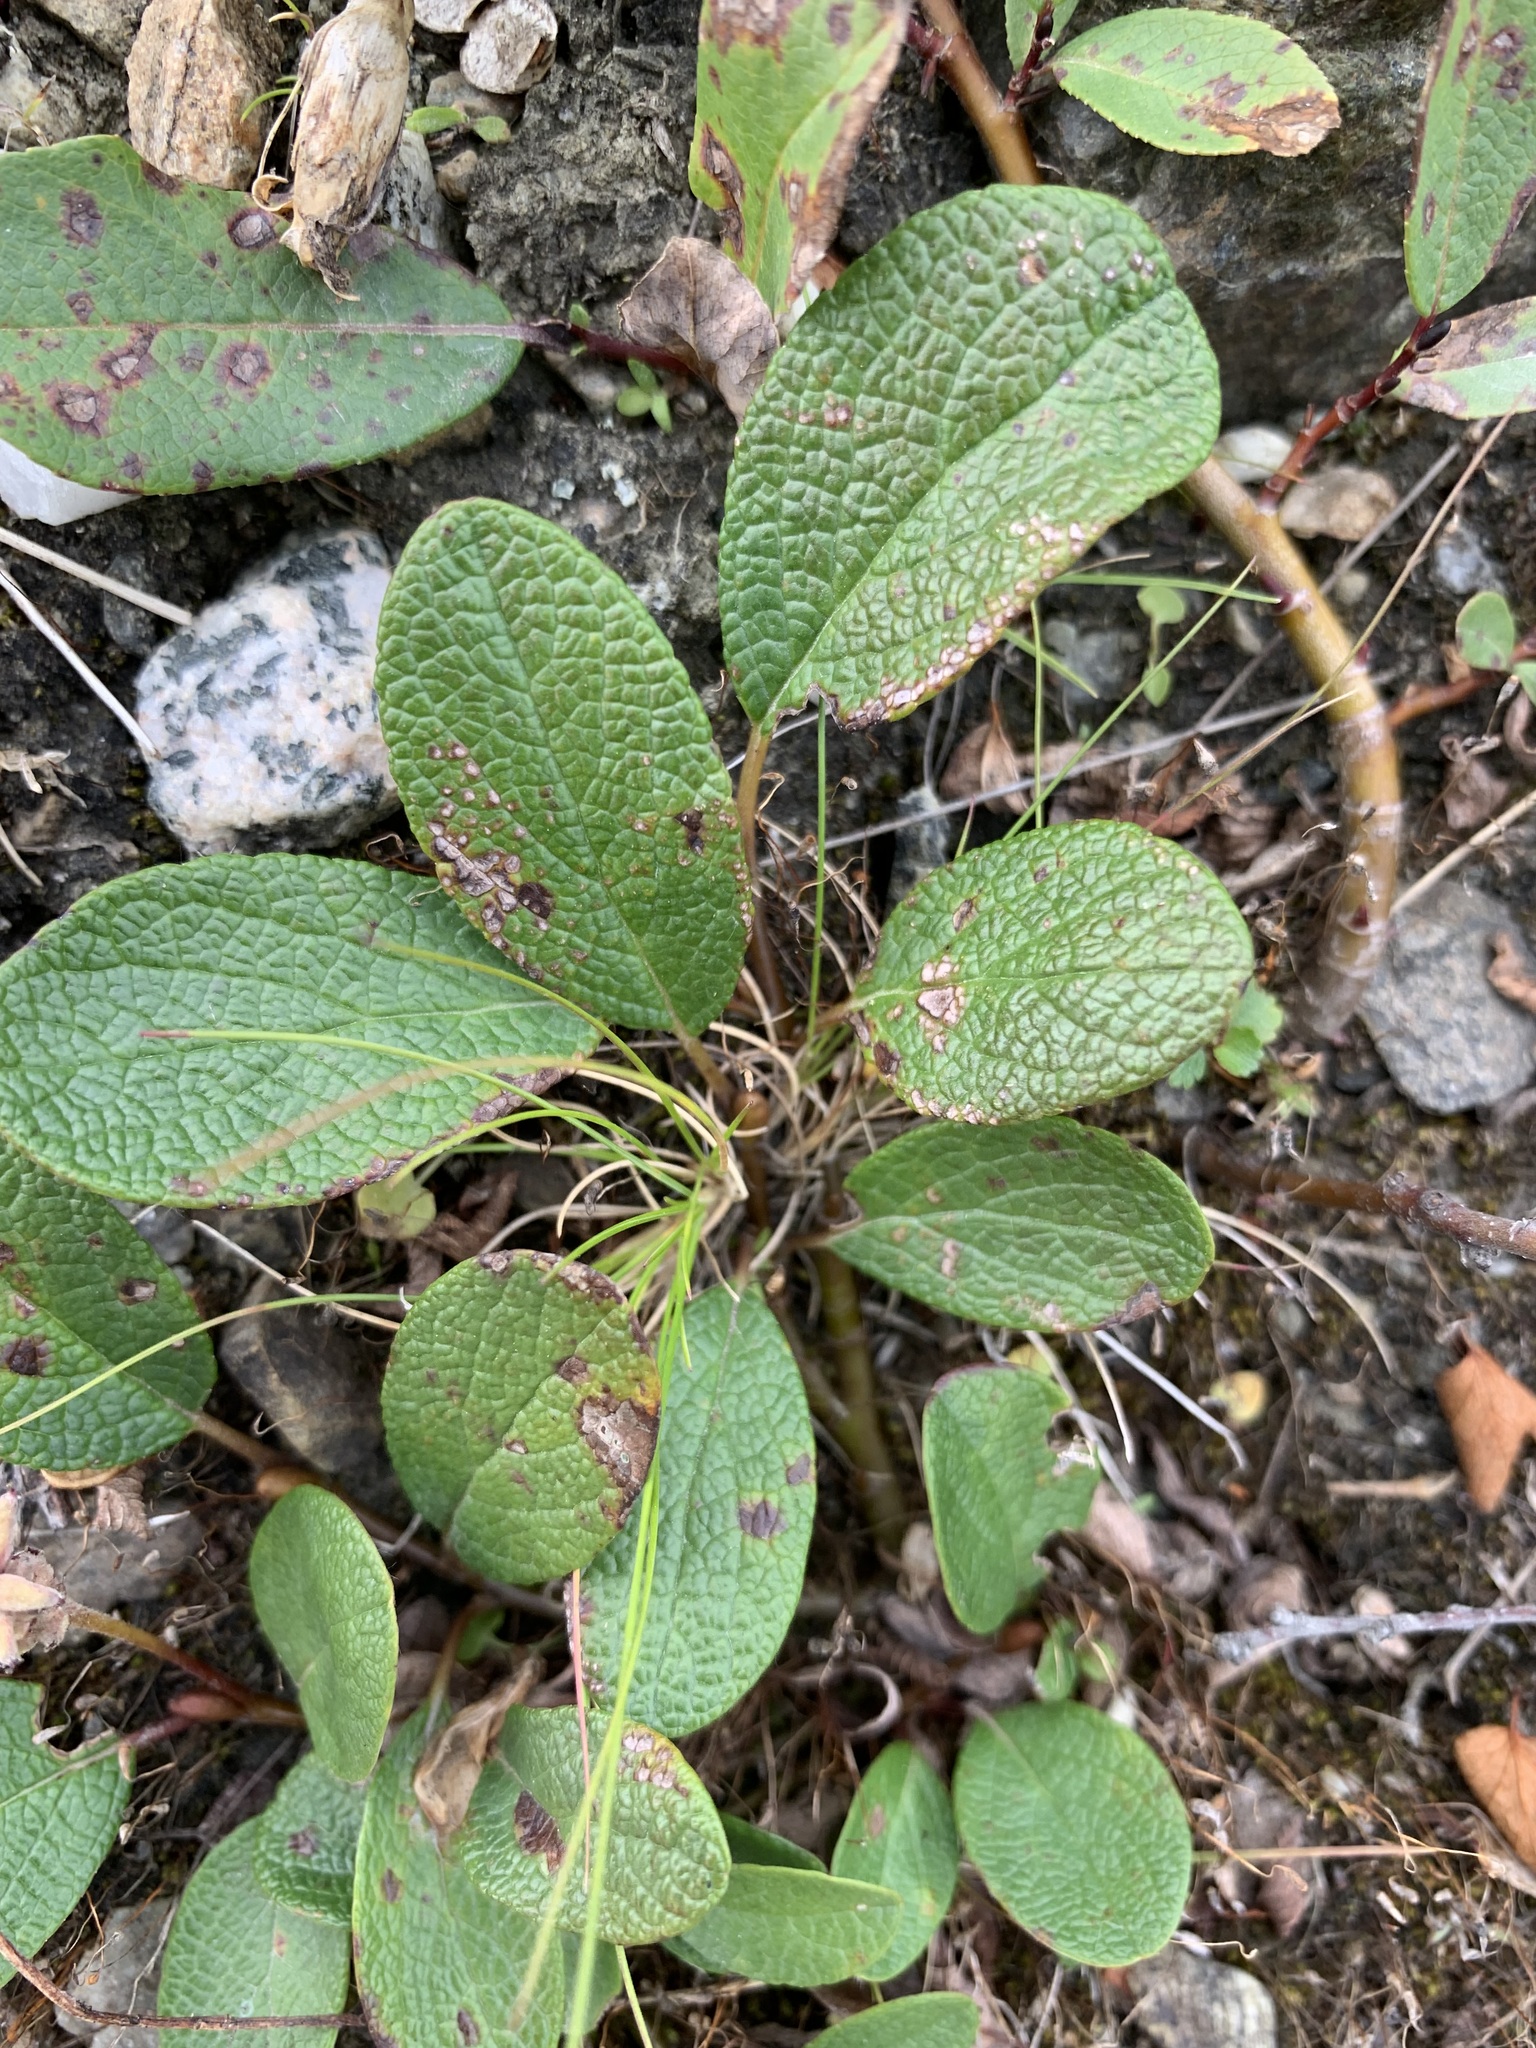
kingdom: Plantae
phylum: Tracheophyta
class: Magnoliopsida
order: Malpighiales
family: Salicaceae
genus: Salix
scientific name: Salix reticulata
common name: Net-leaved willow
